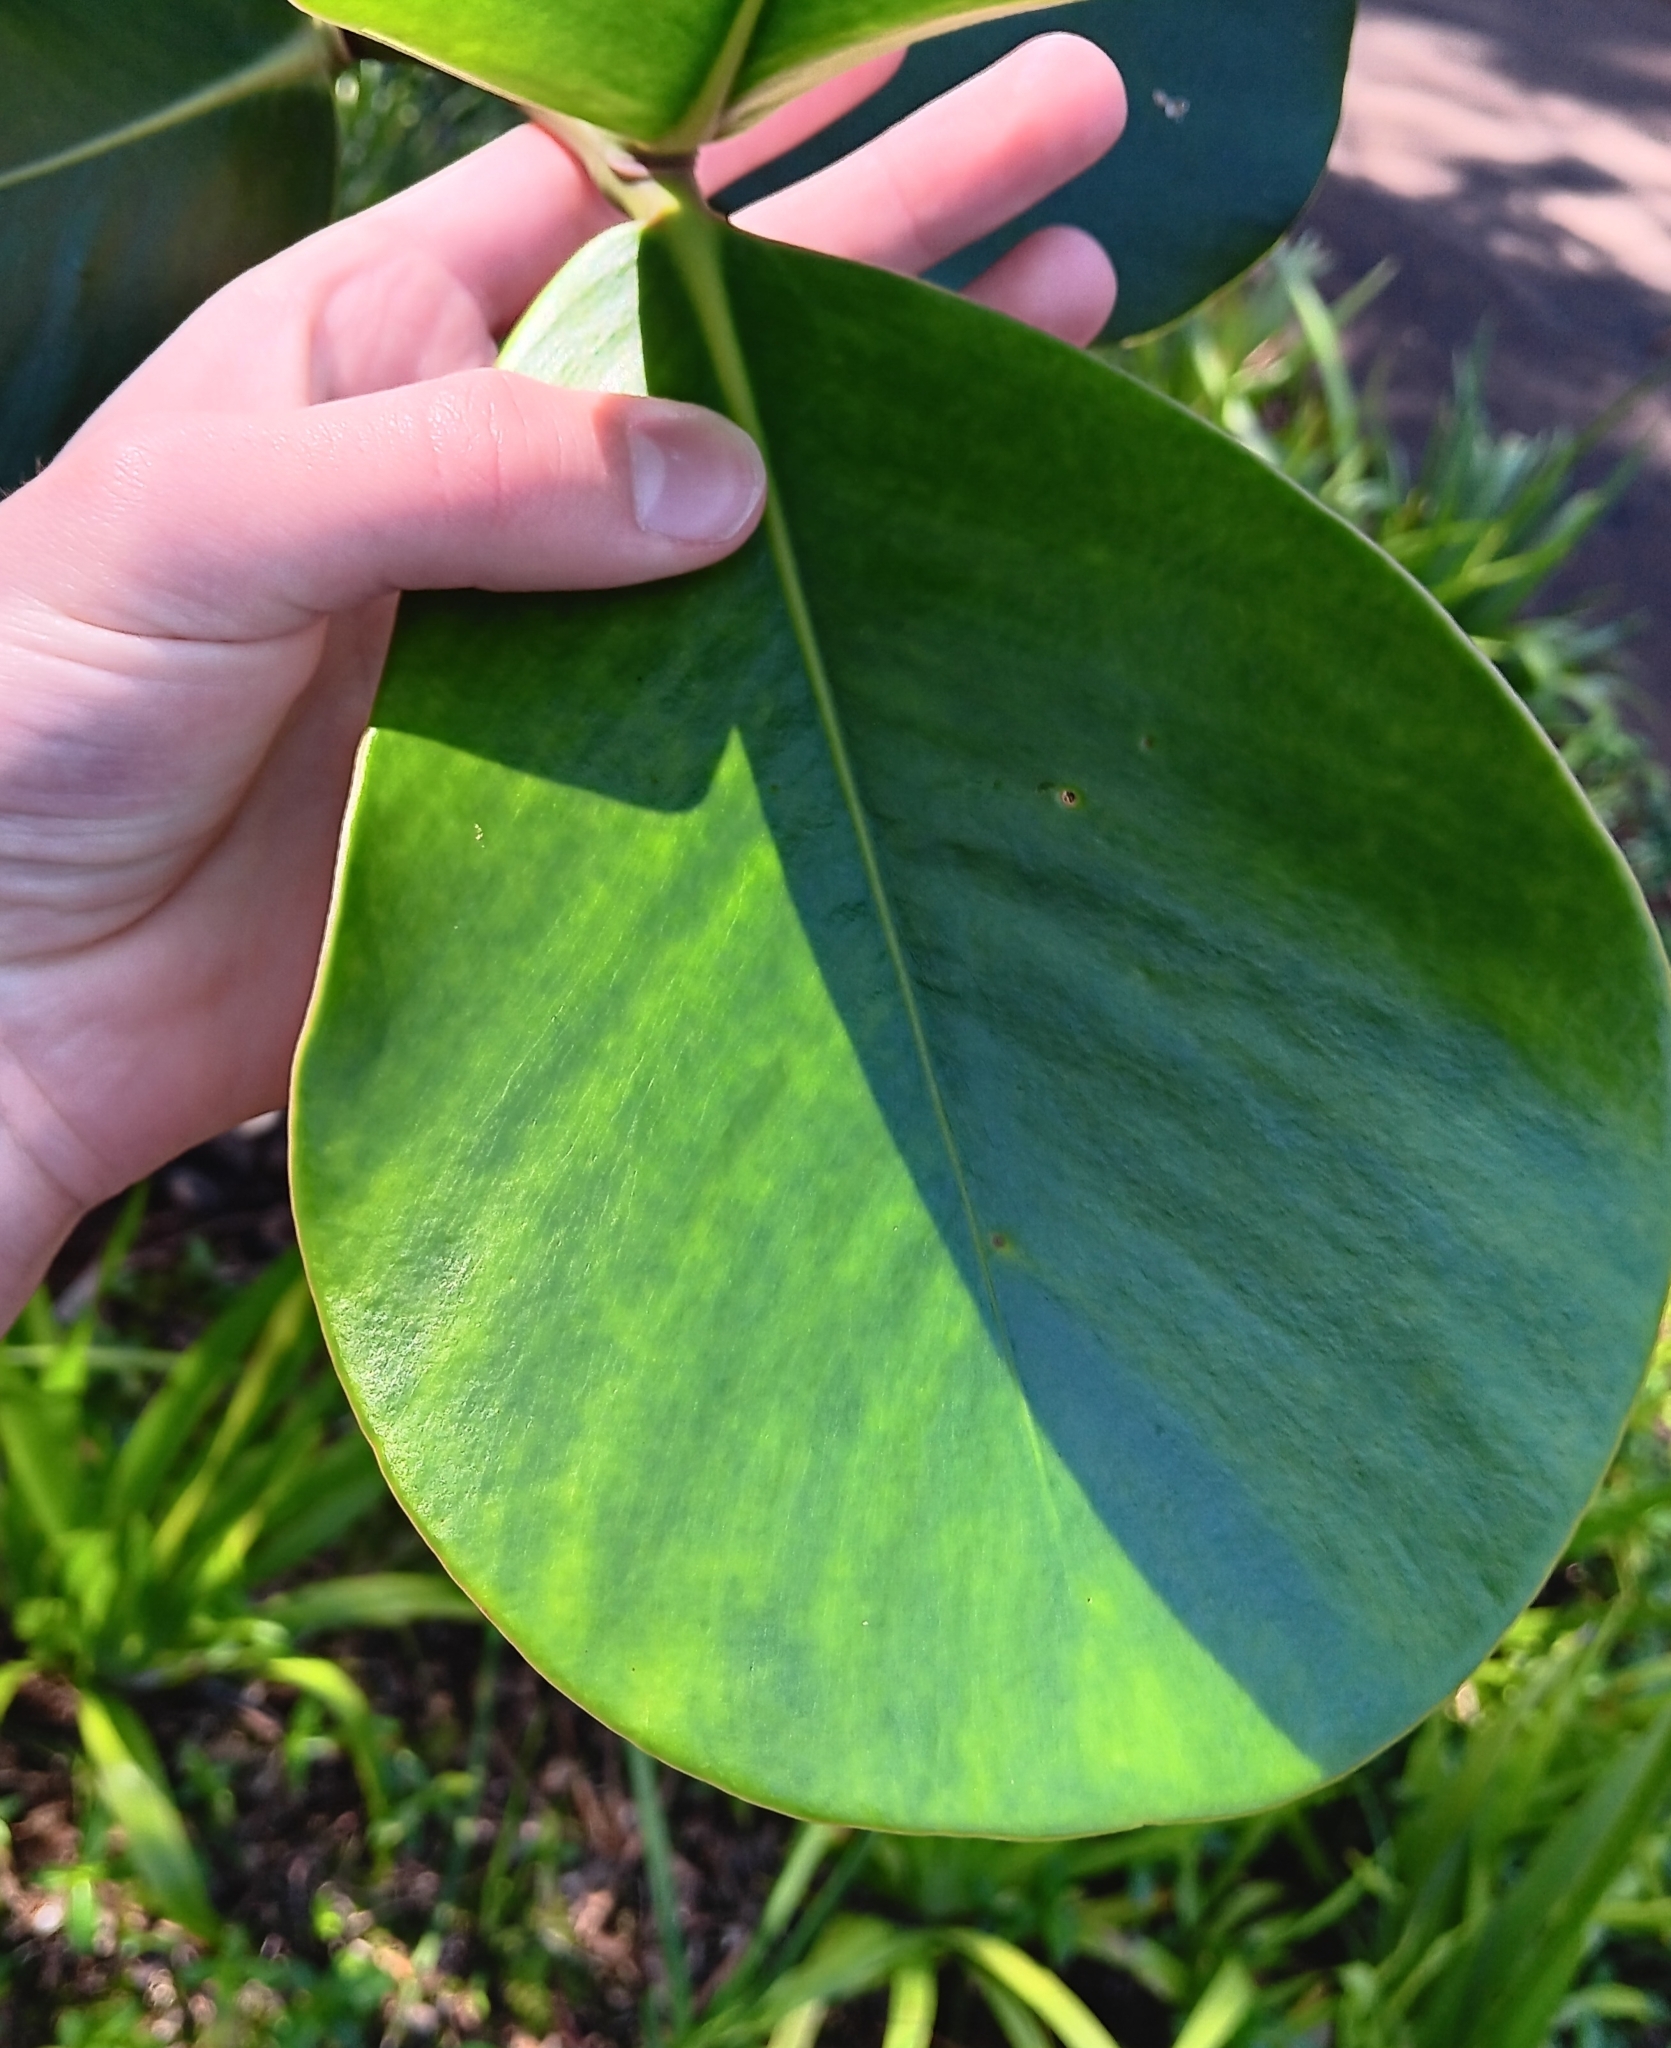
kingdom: Plantae
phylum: Tracheophyta
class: Magnoliopsida
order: Malpighiales
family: Clusiaceae
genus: Clusia
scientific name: Clusia rosea
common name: Scotch attorney
